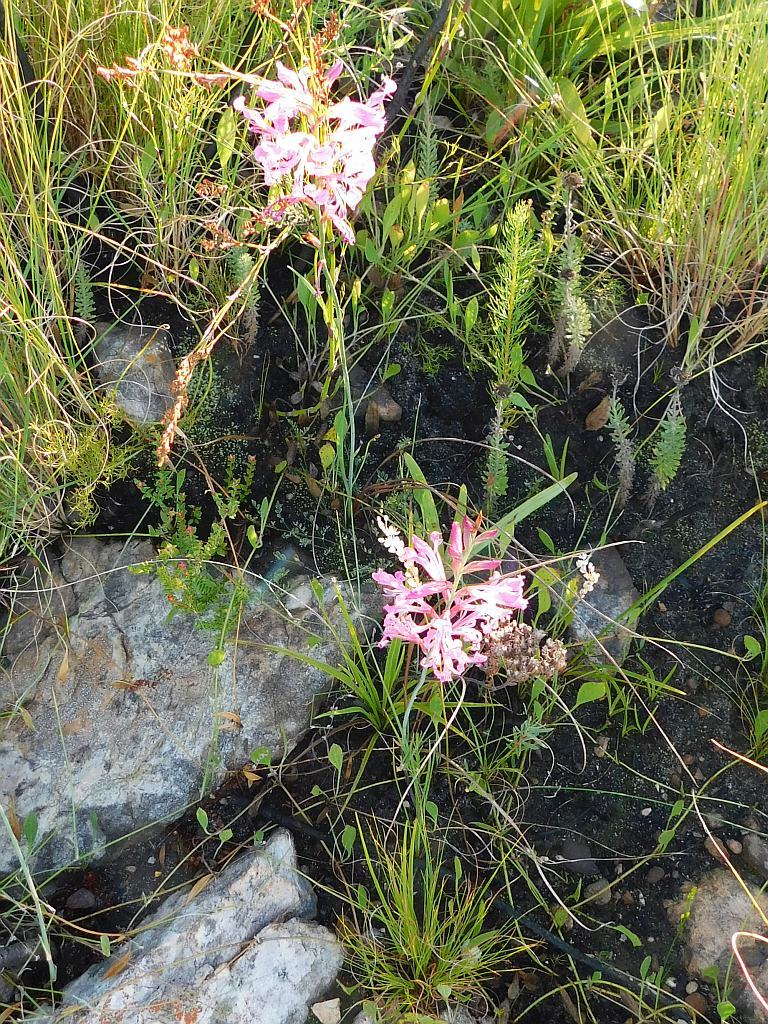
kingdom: Plantae
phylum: Tracheophyta
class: Liliopsida
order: Asparagales
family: Iridaceae
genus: Tritoniopsis
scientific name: Tritoniopsis lata
